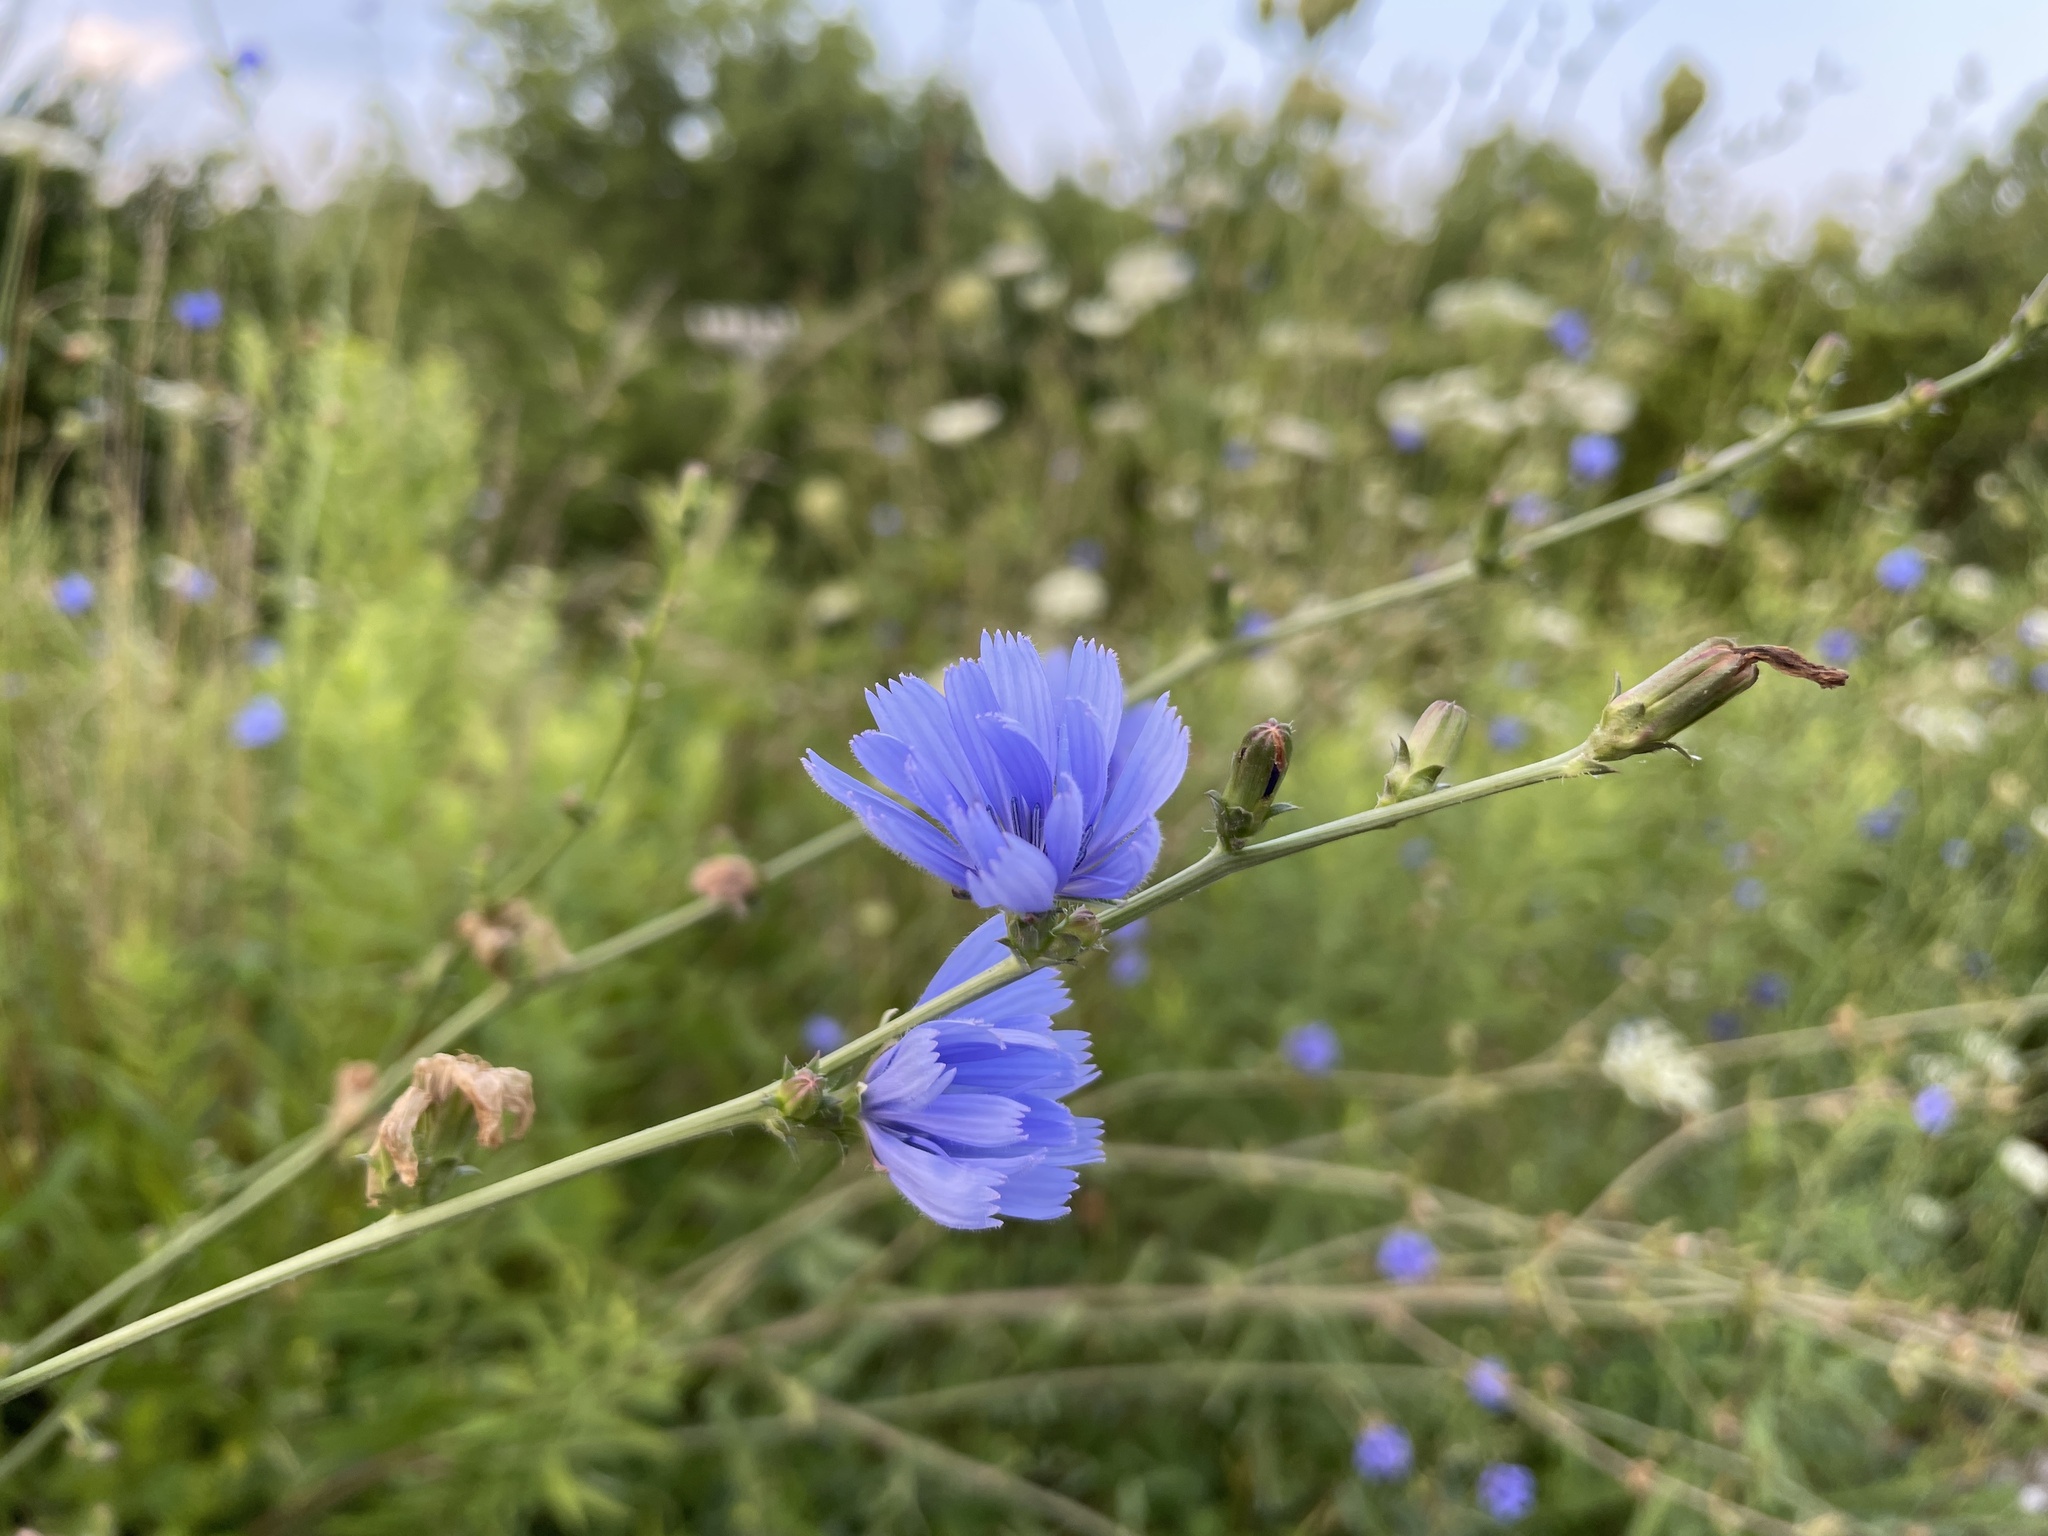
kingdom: Plantae
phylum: Tracheophyta
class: Magnoliopsida
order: Asterales
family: Asteraceae
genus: Cichorium
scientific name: Cichorium intybus
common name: Chicory
